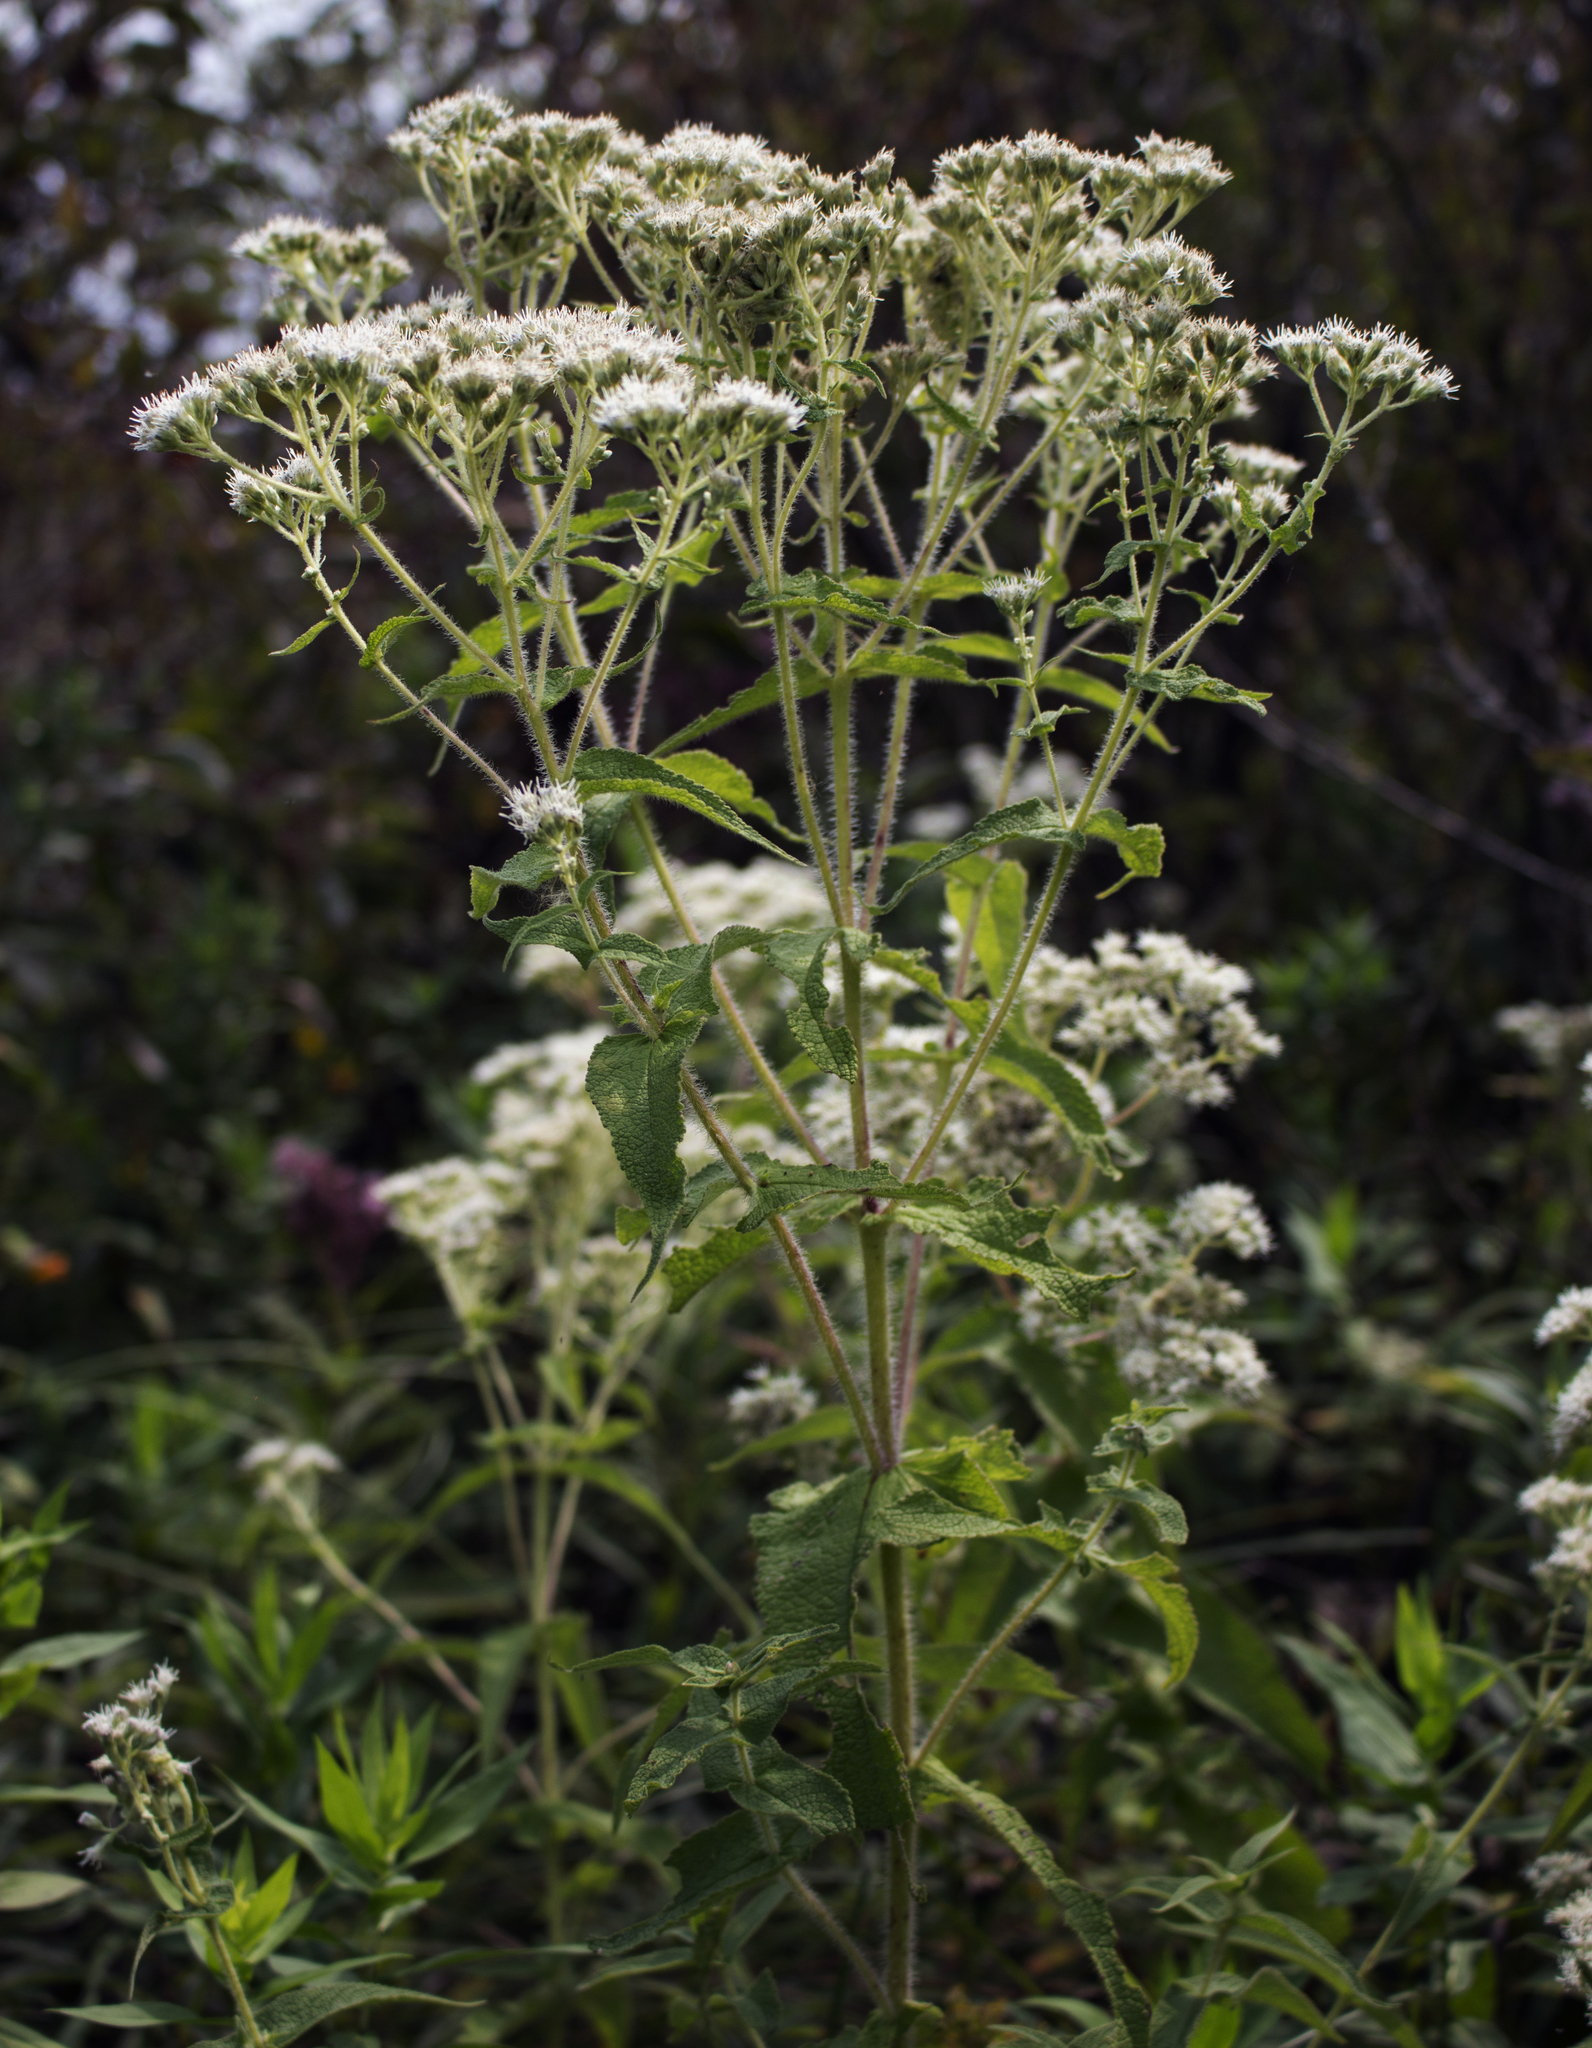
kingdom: Plantae
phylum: Tracheophyta
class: Magnoliopsida
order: Asterales
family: Asteraceae
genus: Eupatorium
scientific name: Eupatorium perfoliatum
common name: Boneset
